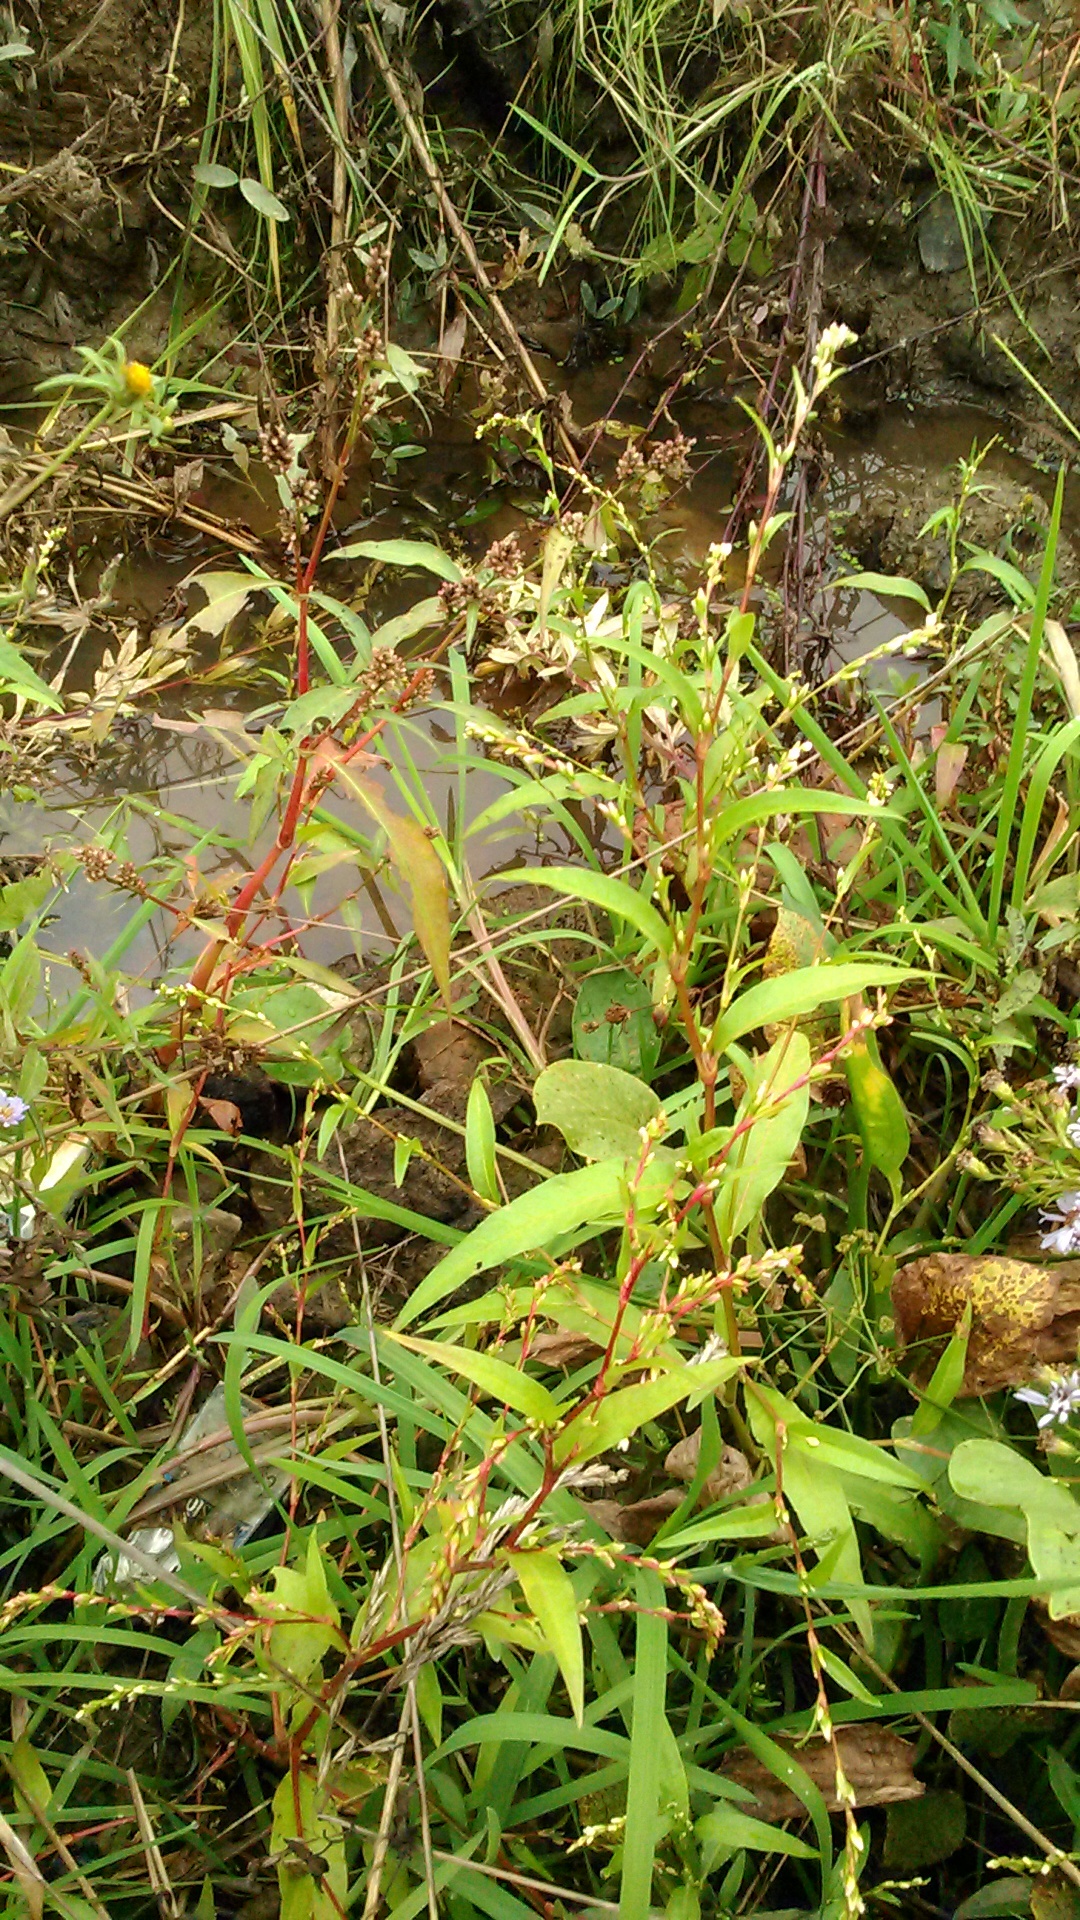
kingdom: Plantae
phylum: Tracheophyta
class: Magnoliopsida
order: Caryophyllales
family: Polygonaceae
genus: Persicaria
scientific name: Persicaria hydropiper
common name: Water-pepper
